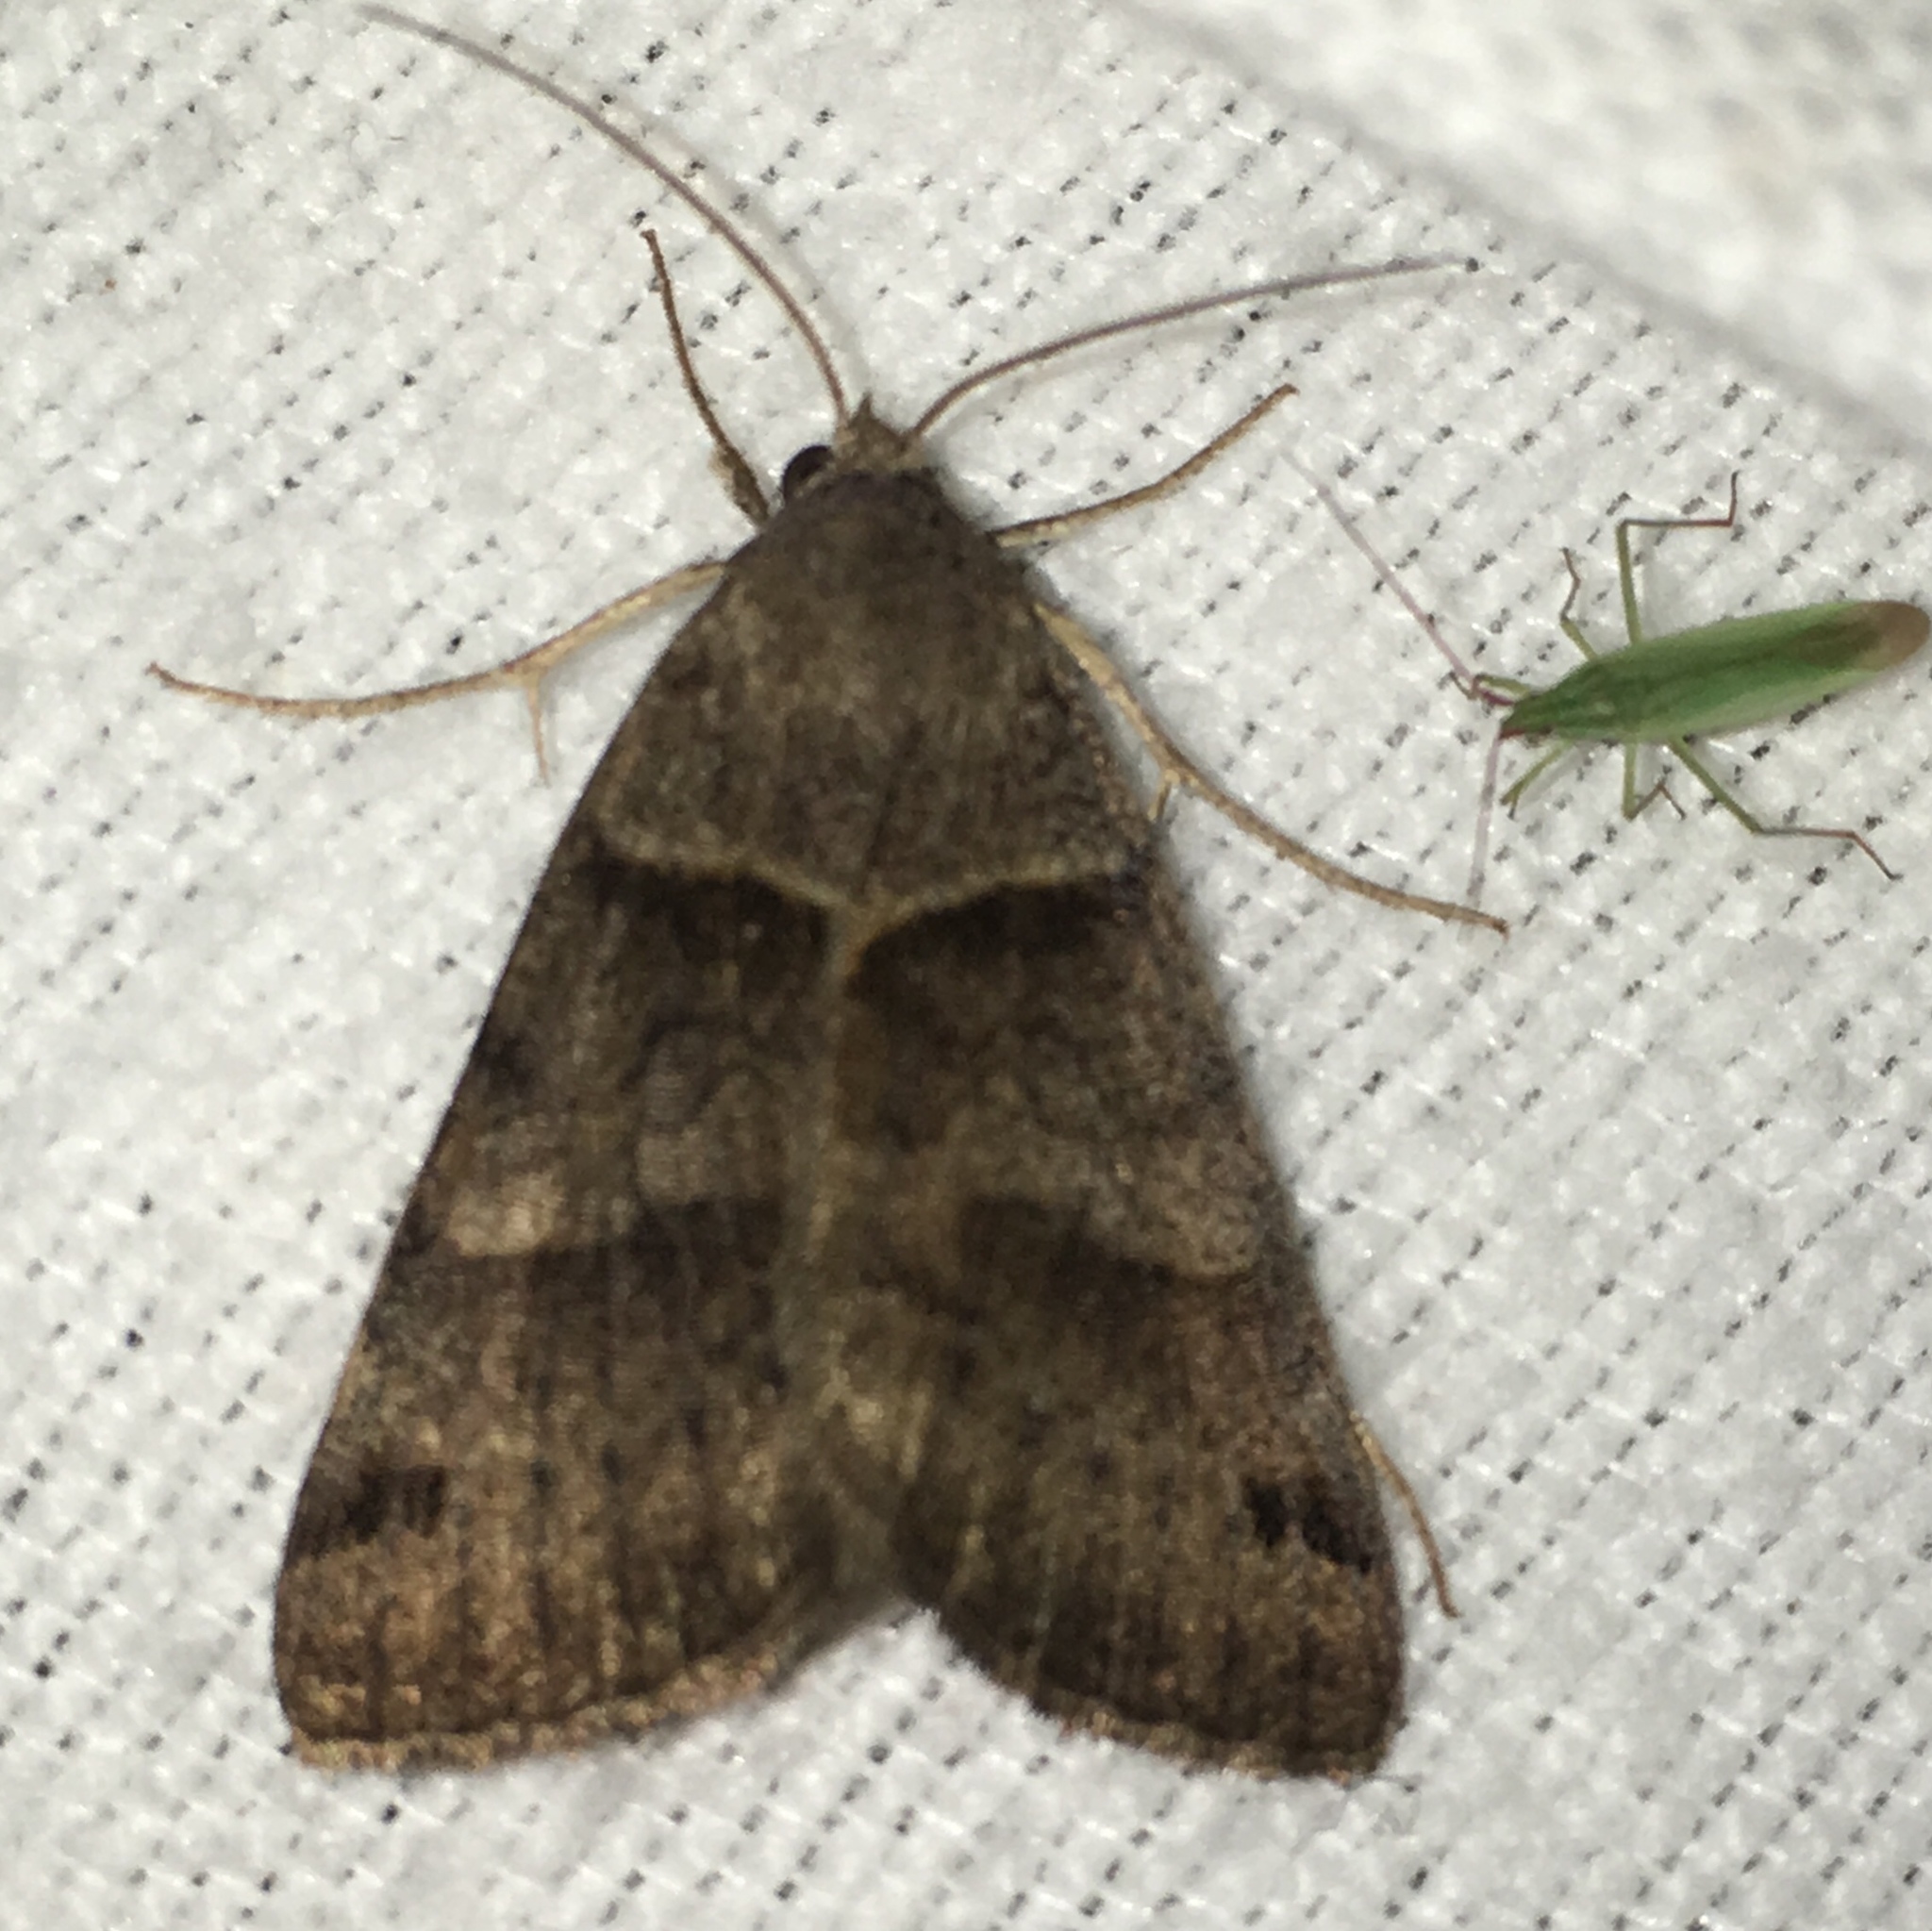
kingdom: Animalia
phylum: Arthropoda
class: Insecta
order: Lepidoptera
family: Erebidae
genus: Caenurgina
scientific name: Caenurgina crassiuscula
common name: Double-barred
